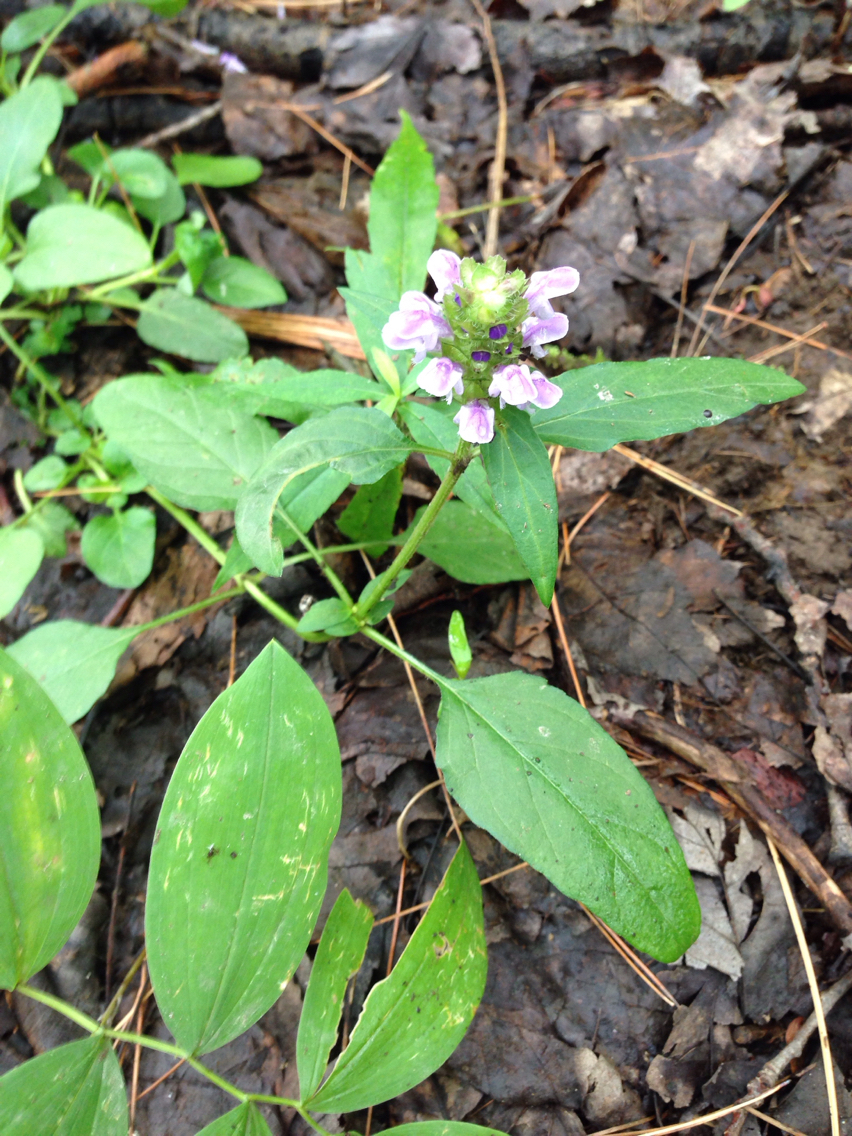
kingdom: Plantae
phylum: Tracheophyta
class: Magnoliopsida
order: Lamiales
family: Lamiaceae
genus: Prunella
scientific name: Prunella vulgaris
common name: Heal-all
